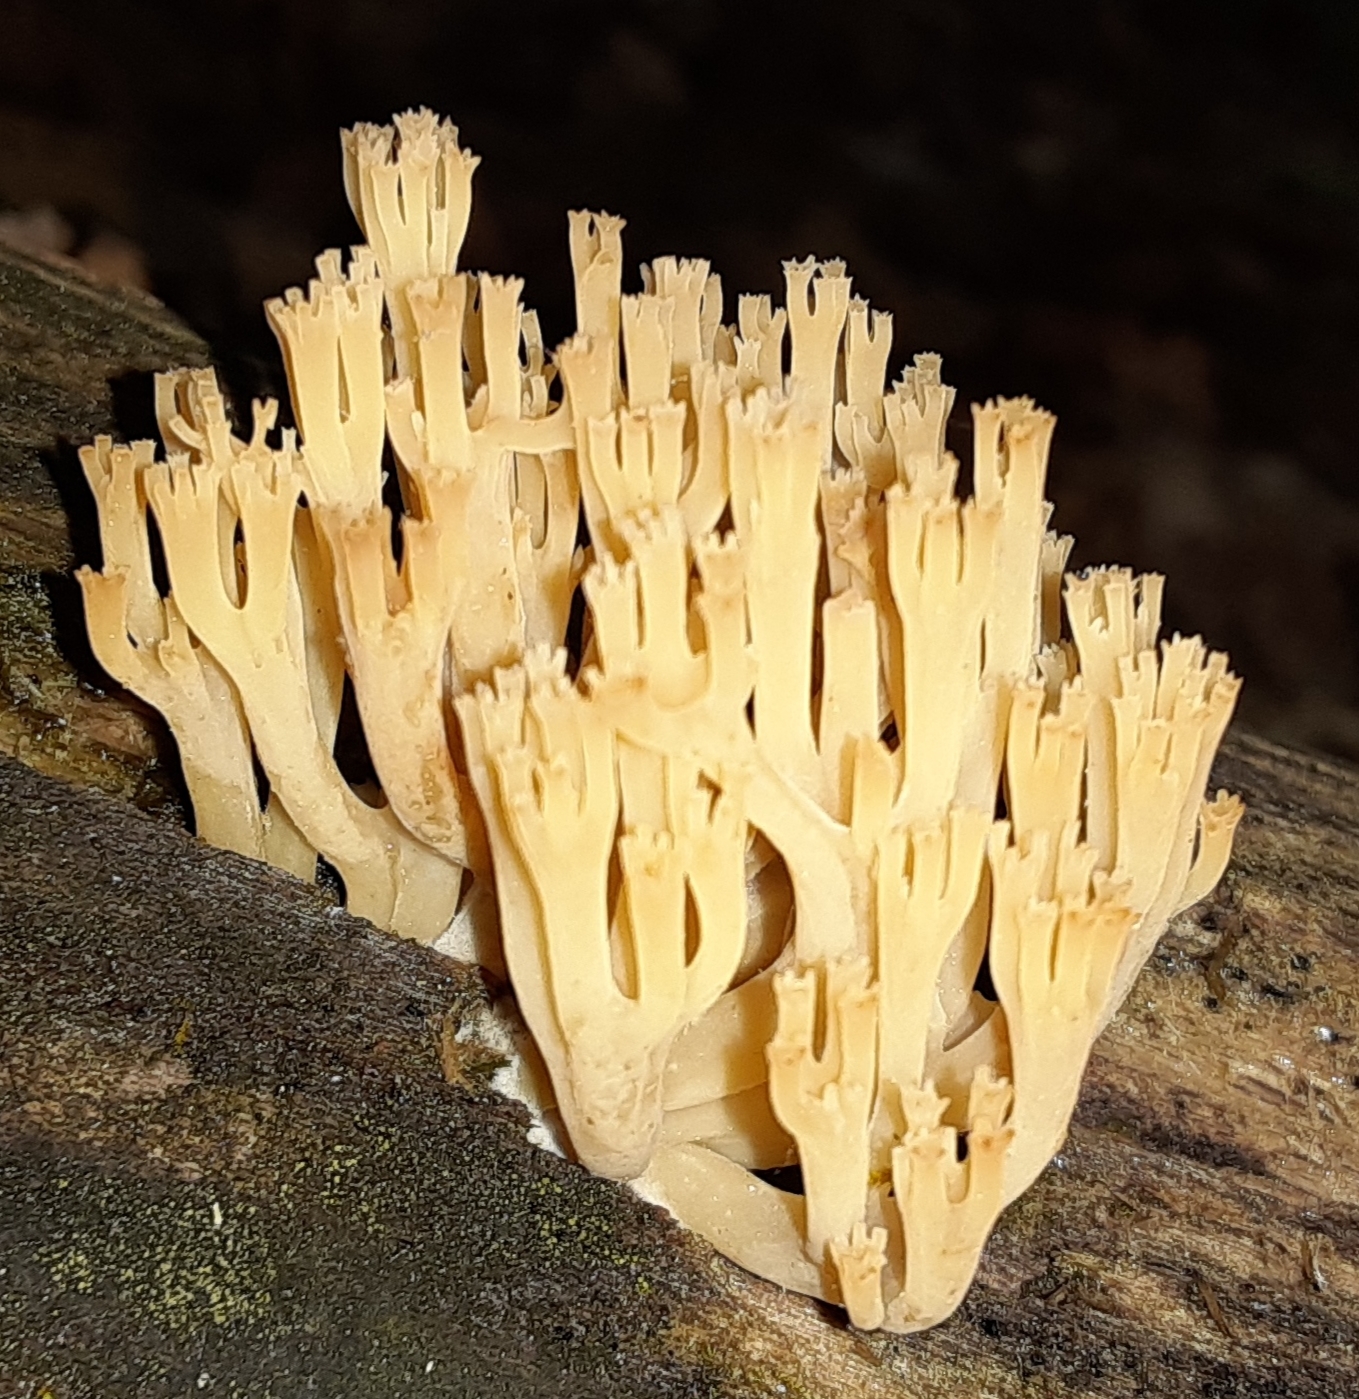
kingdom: Fungi
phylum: Basidiomycota
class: Agaricomycetes
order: Russulales
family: Auriscalpiaceae
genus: Artomyces
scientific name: Artomyces pyxidatus
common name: Crown-tipped coral fungus
